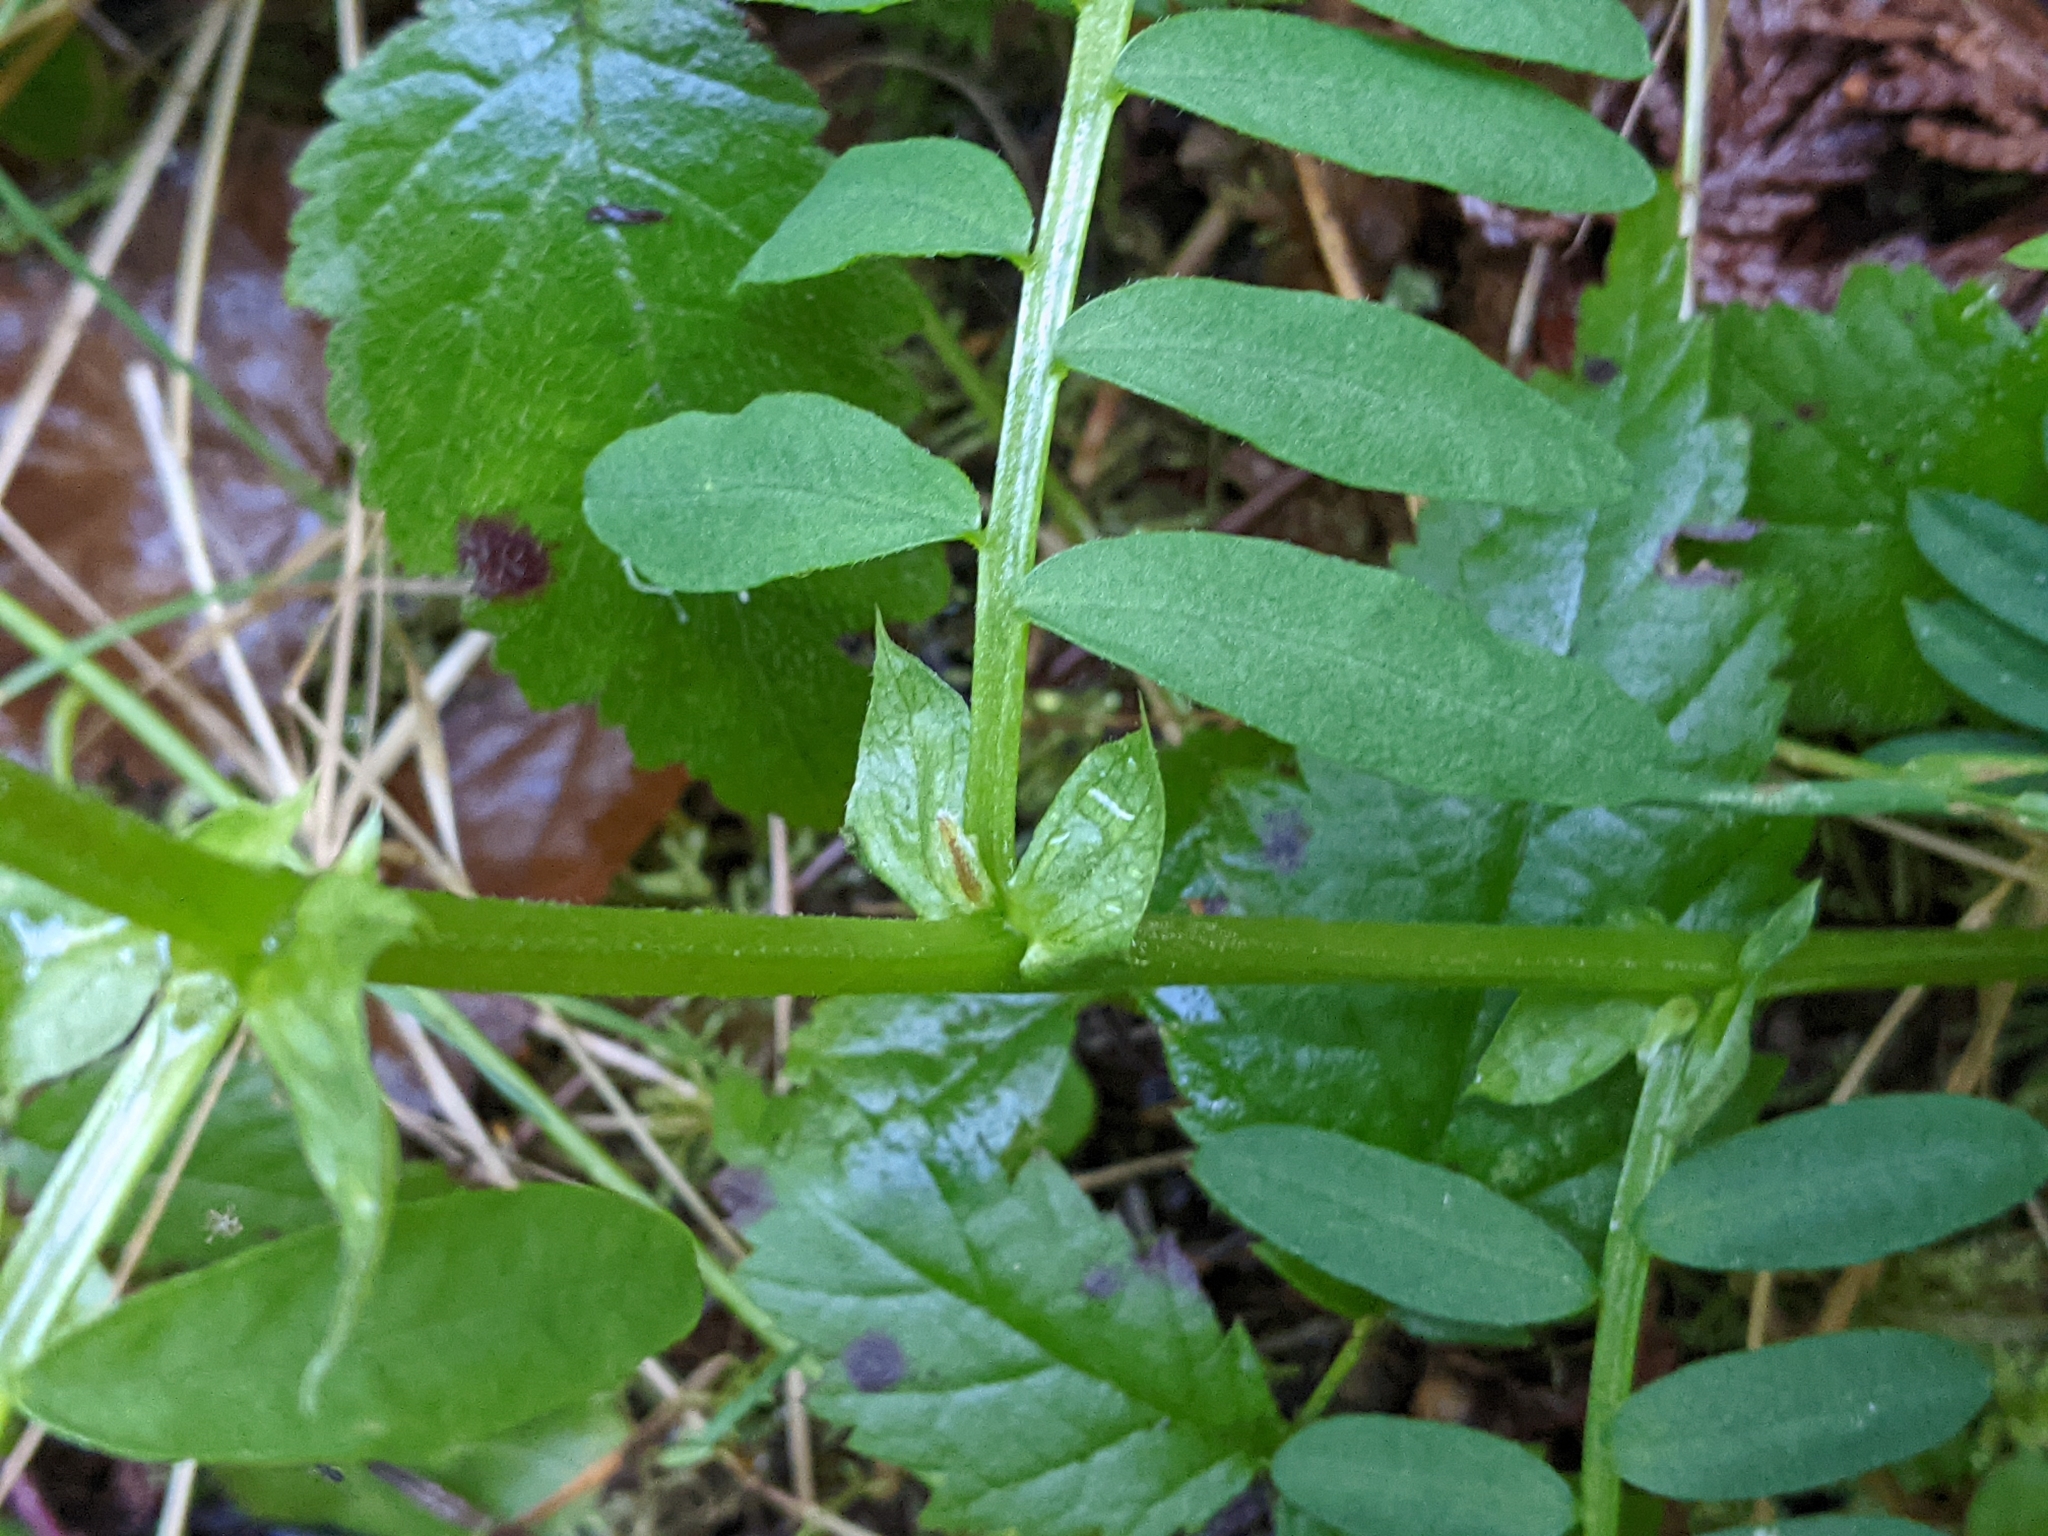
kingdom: Plantae
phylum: Tracheophyta
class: Magnoliopsida
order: Fabales
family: Fabaceae
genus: Vicia
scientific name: Vicia
